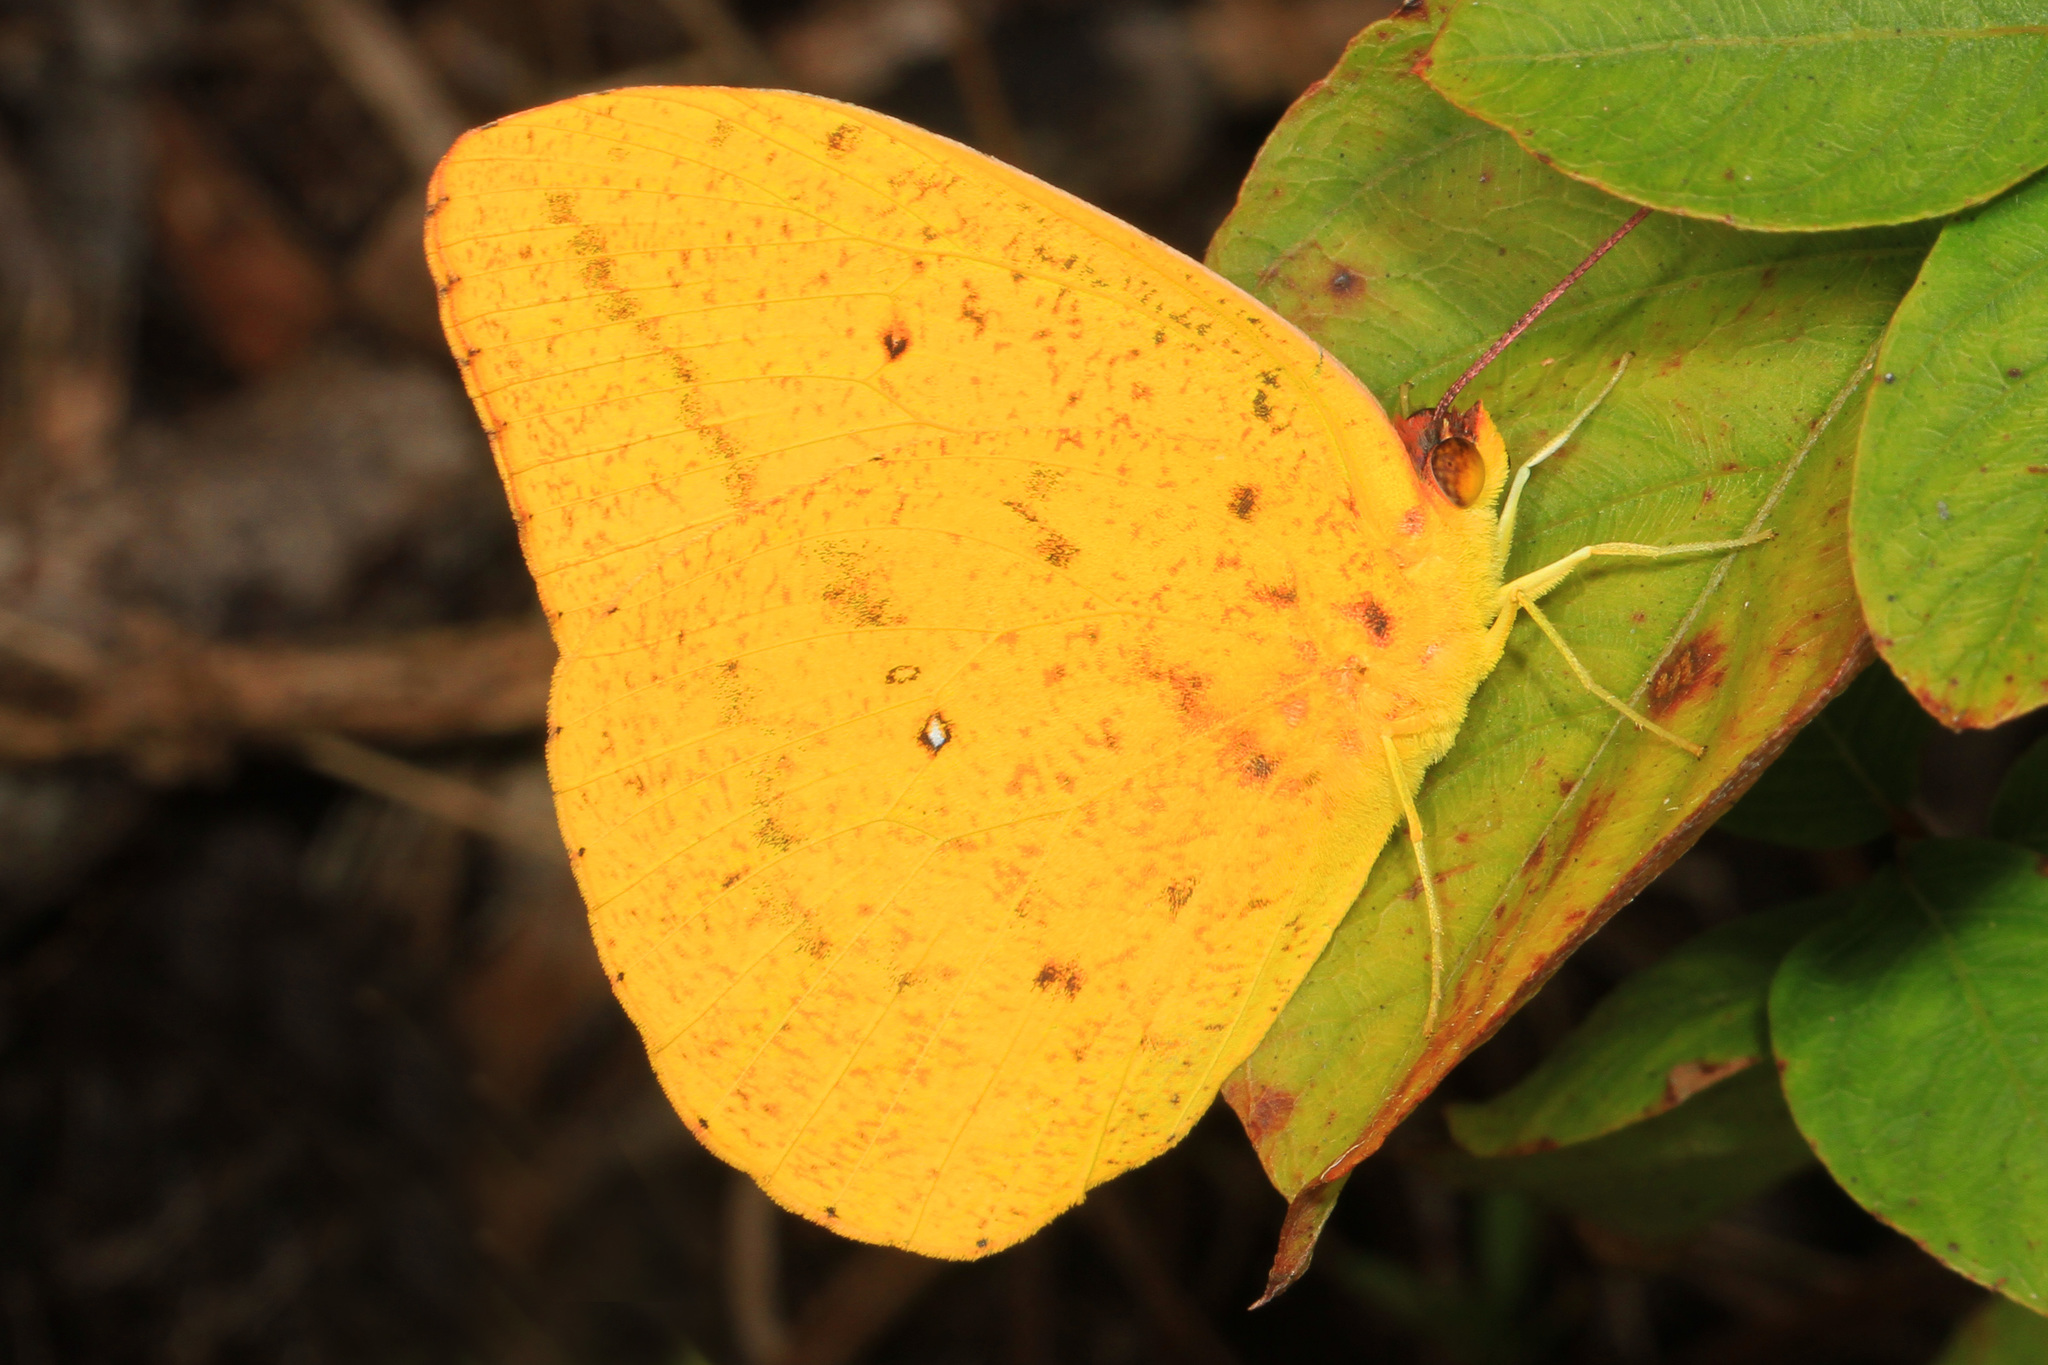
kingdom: Animalia
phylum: Arthropoda
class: Insecta
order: Lepidoptera
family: Pieridae
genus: Phoebis
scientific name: Phoebis agarithe
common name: Large orange sulphur
